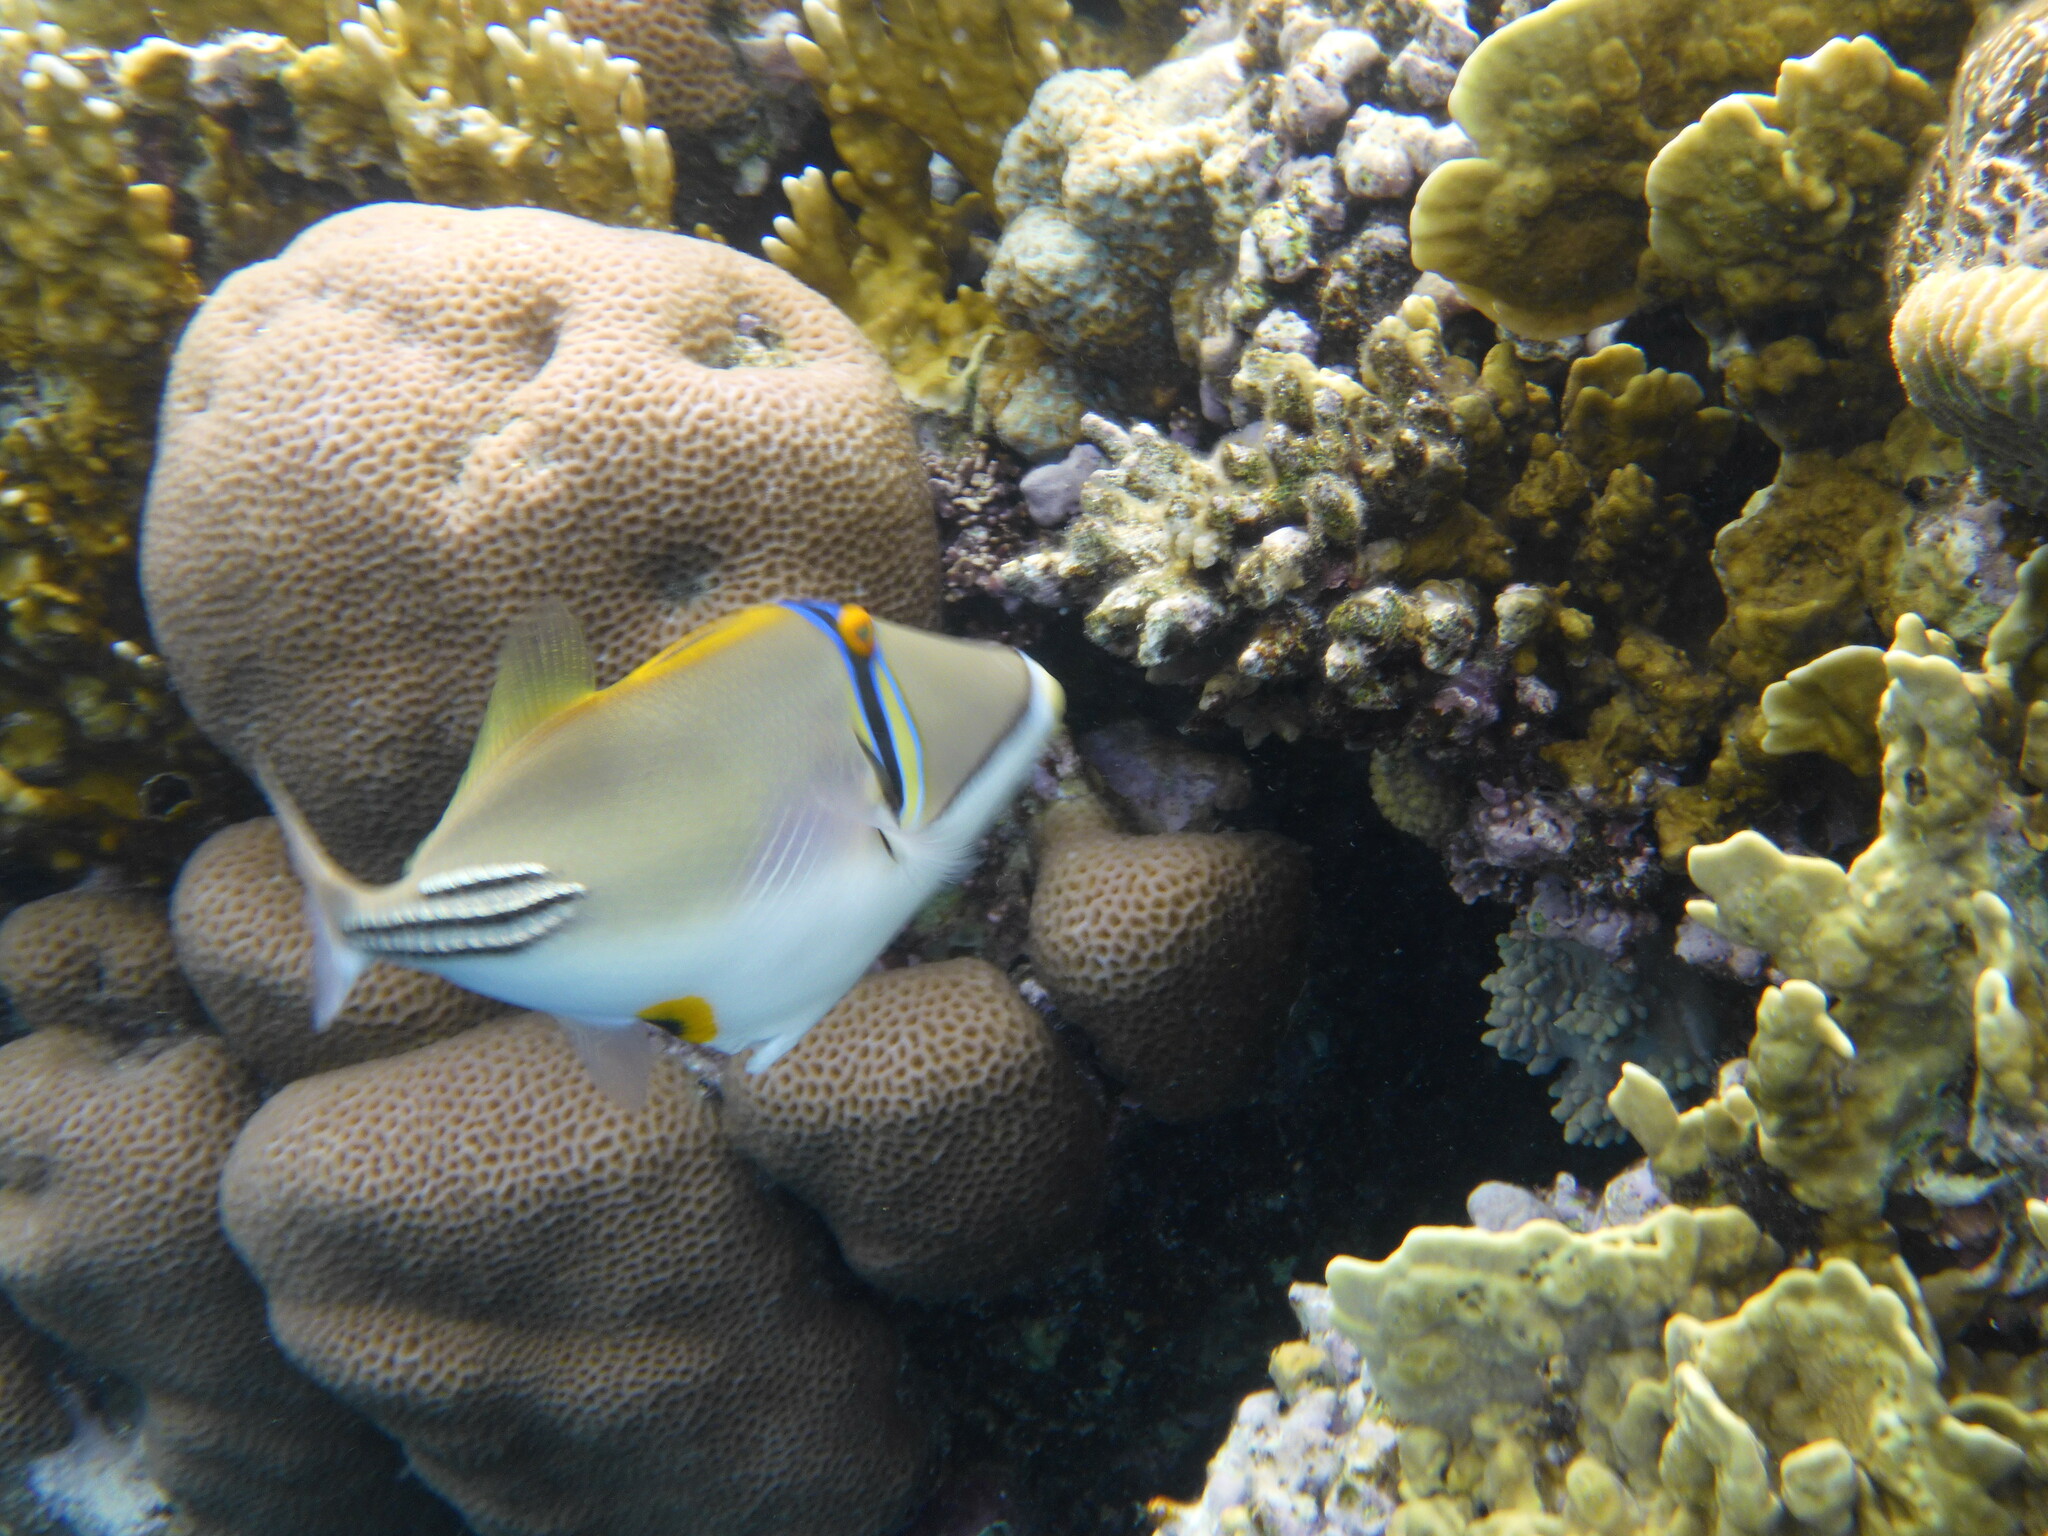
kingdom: Animalia
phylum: Chordata
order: Tetraodontiformes
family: Balistidae
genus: Rhinecanthus
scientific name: Rhinecanthus assasi
